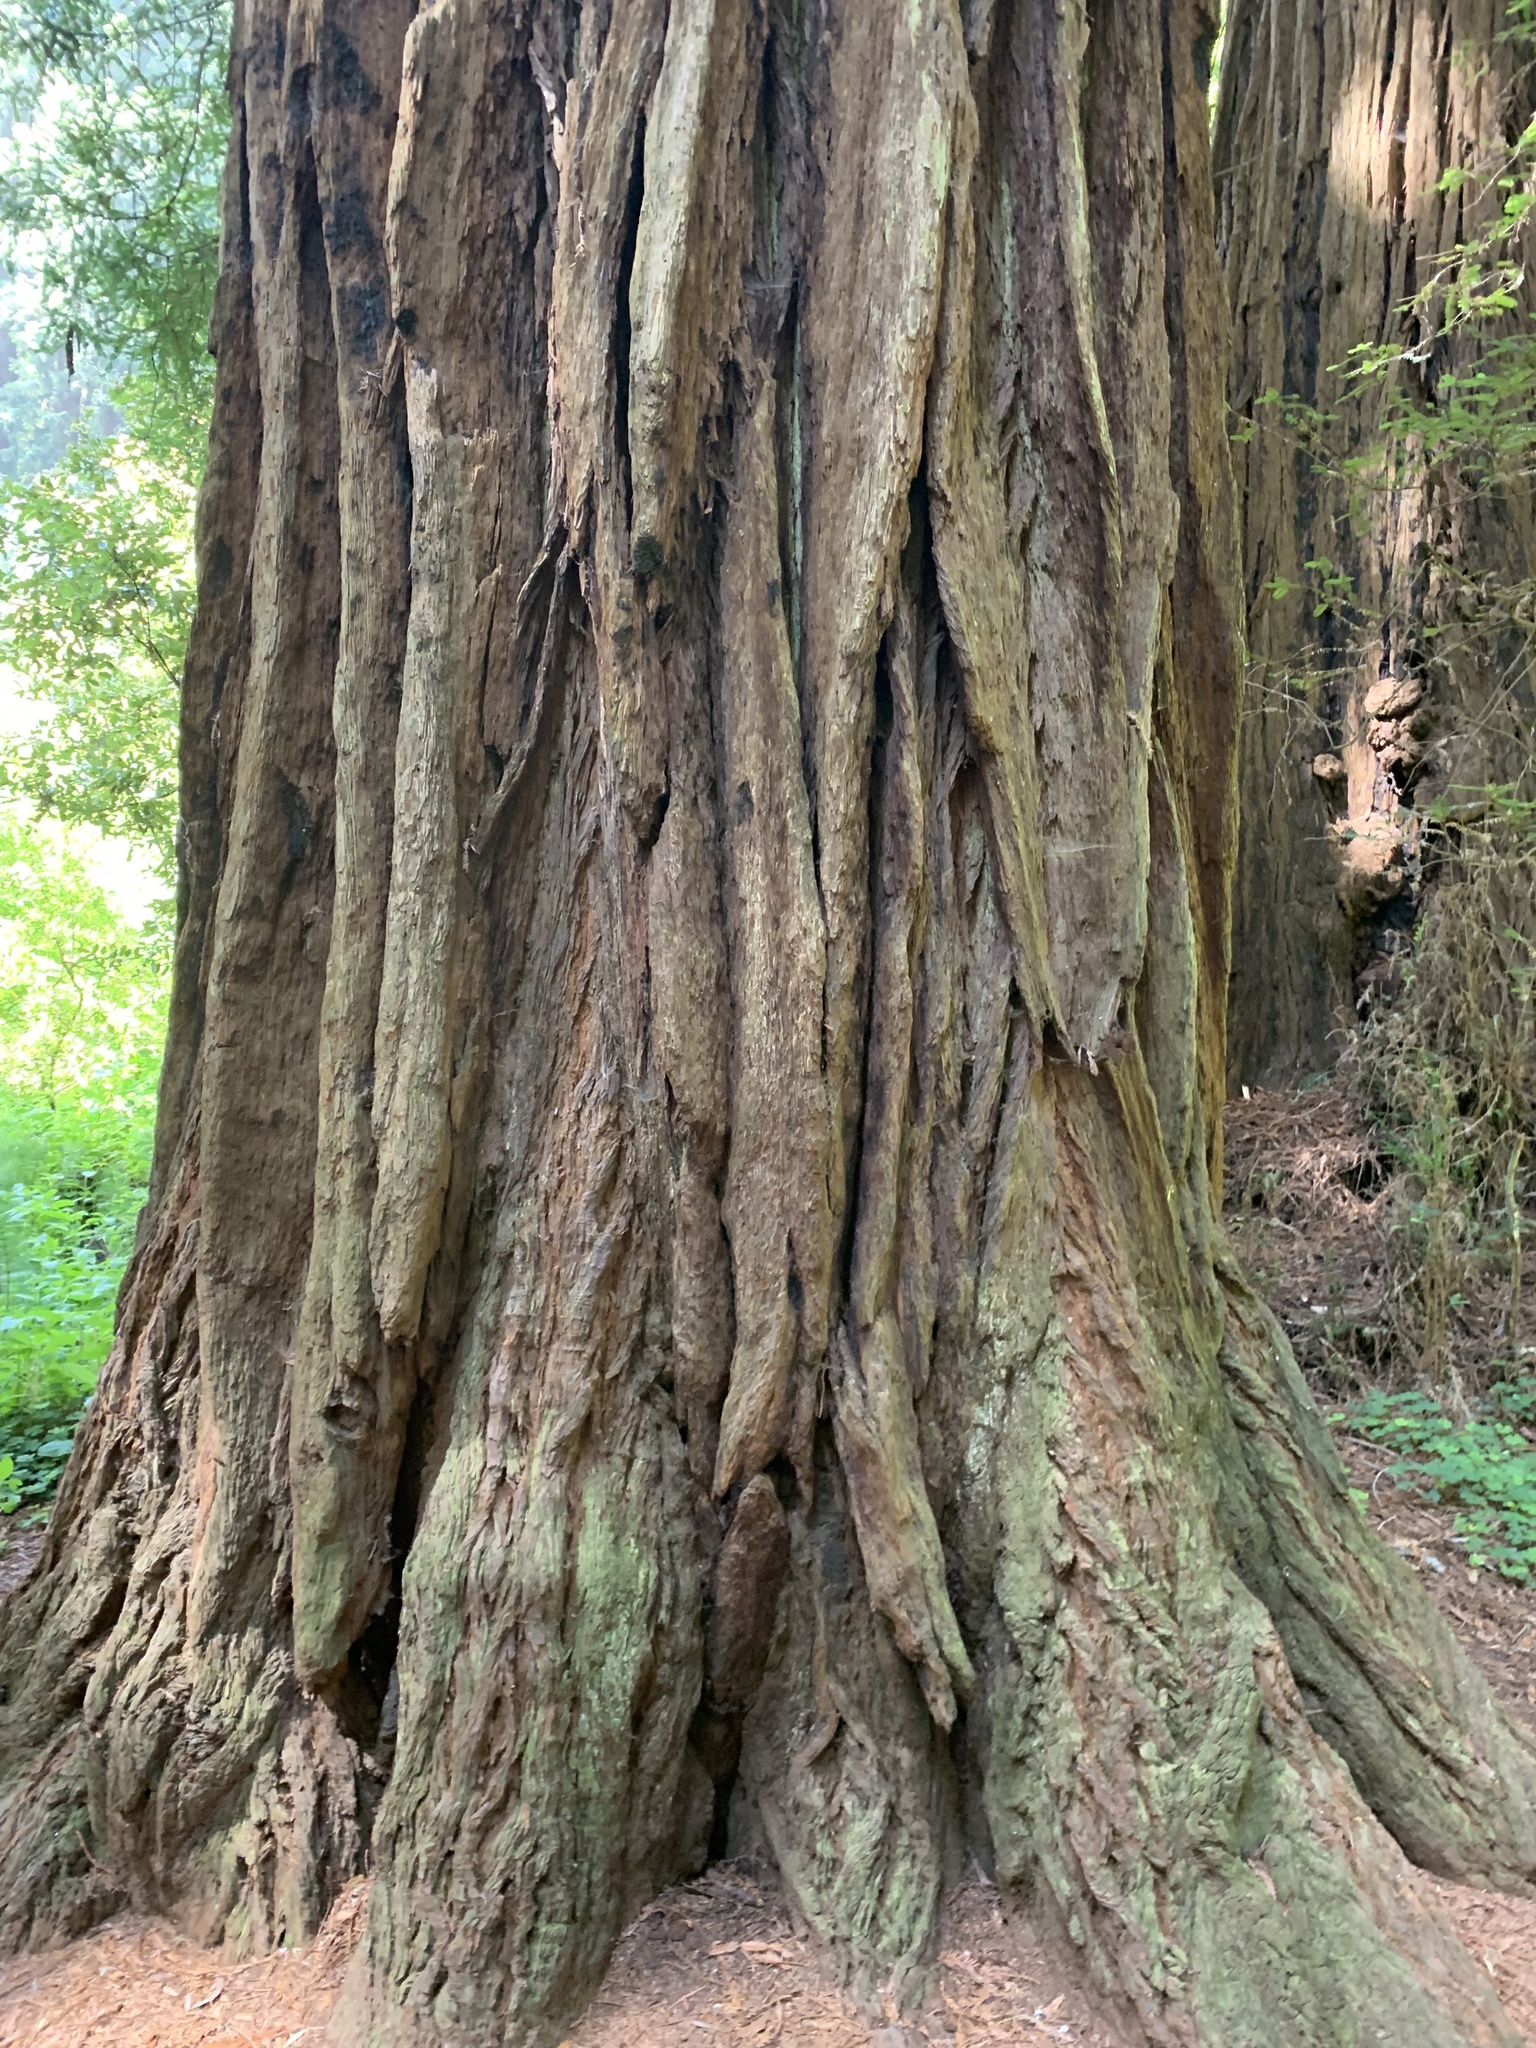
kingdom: Plantae
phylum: Tracheophyta
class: Pinopsida
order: Pinales
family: Cupressaceae
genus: Sequoia
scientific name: Sequoia sempervirens
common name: Coast redwood
